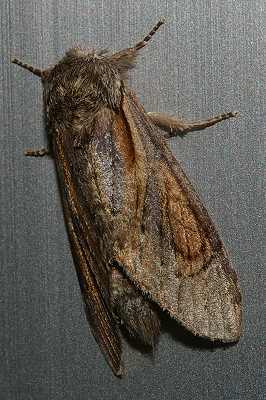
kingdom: Animalia
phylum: Arthropoda
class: Insecta
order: Lepidoptera
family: Notodontidae
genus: Fentonia
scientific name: Fentonia ocypete
